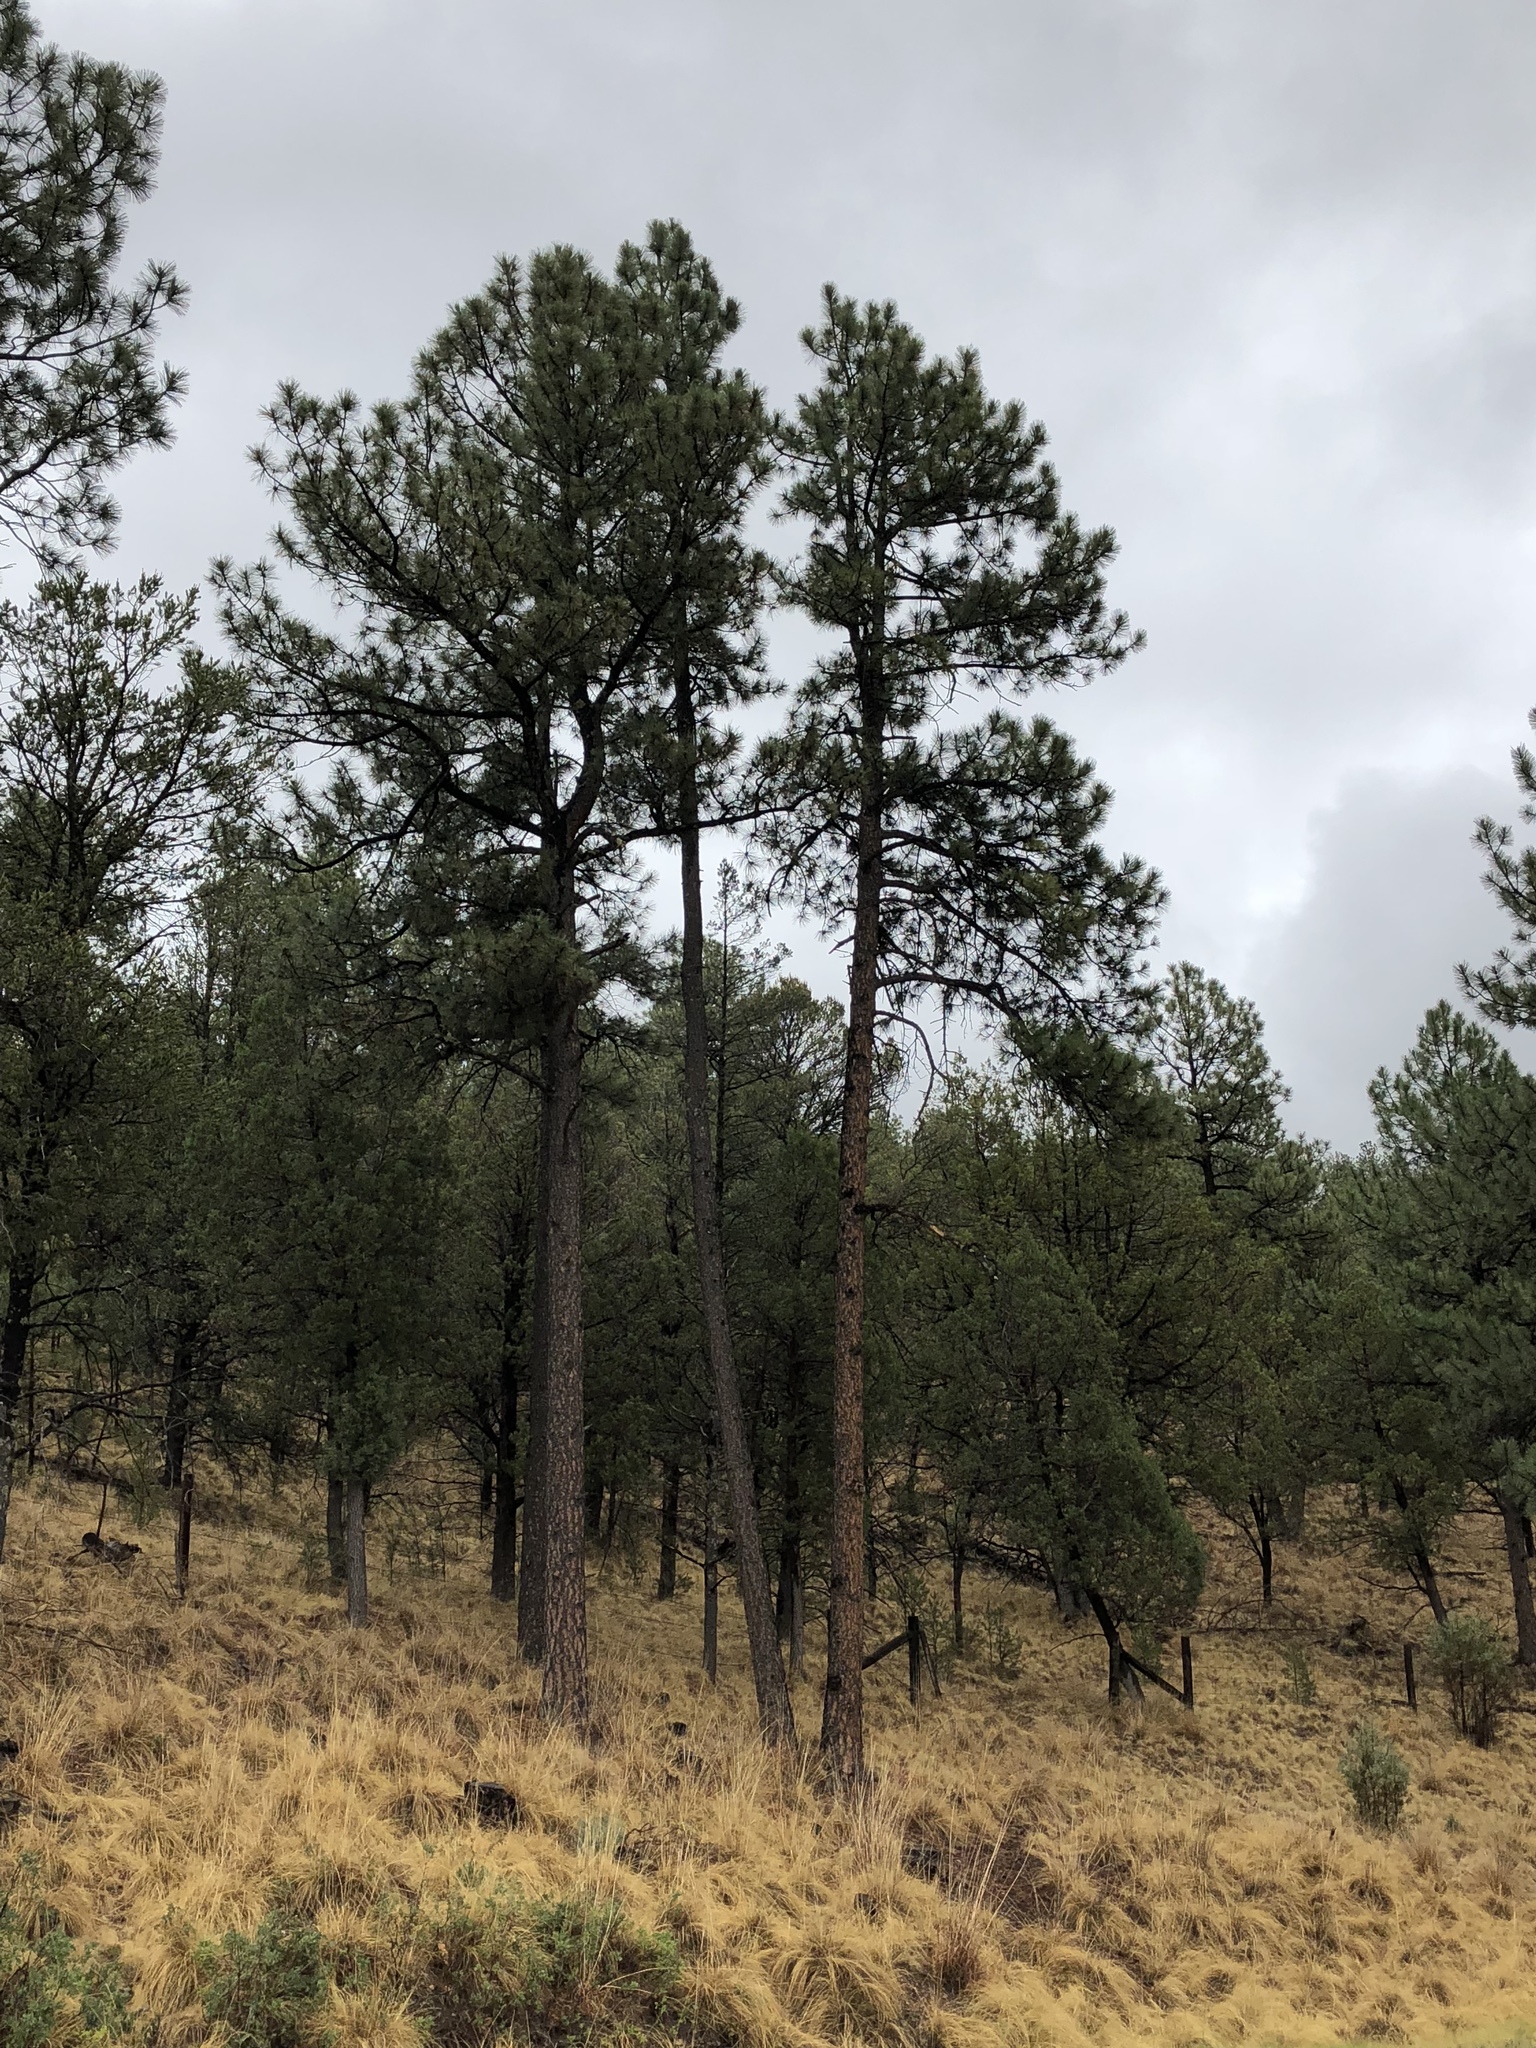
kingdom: Plantae
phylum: Tracheophyta
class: Pinopsida
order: Pinales
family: Pinaceae
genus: Pinus
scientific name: Pinus ponderosa
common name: Western yellow-pine
